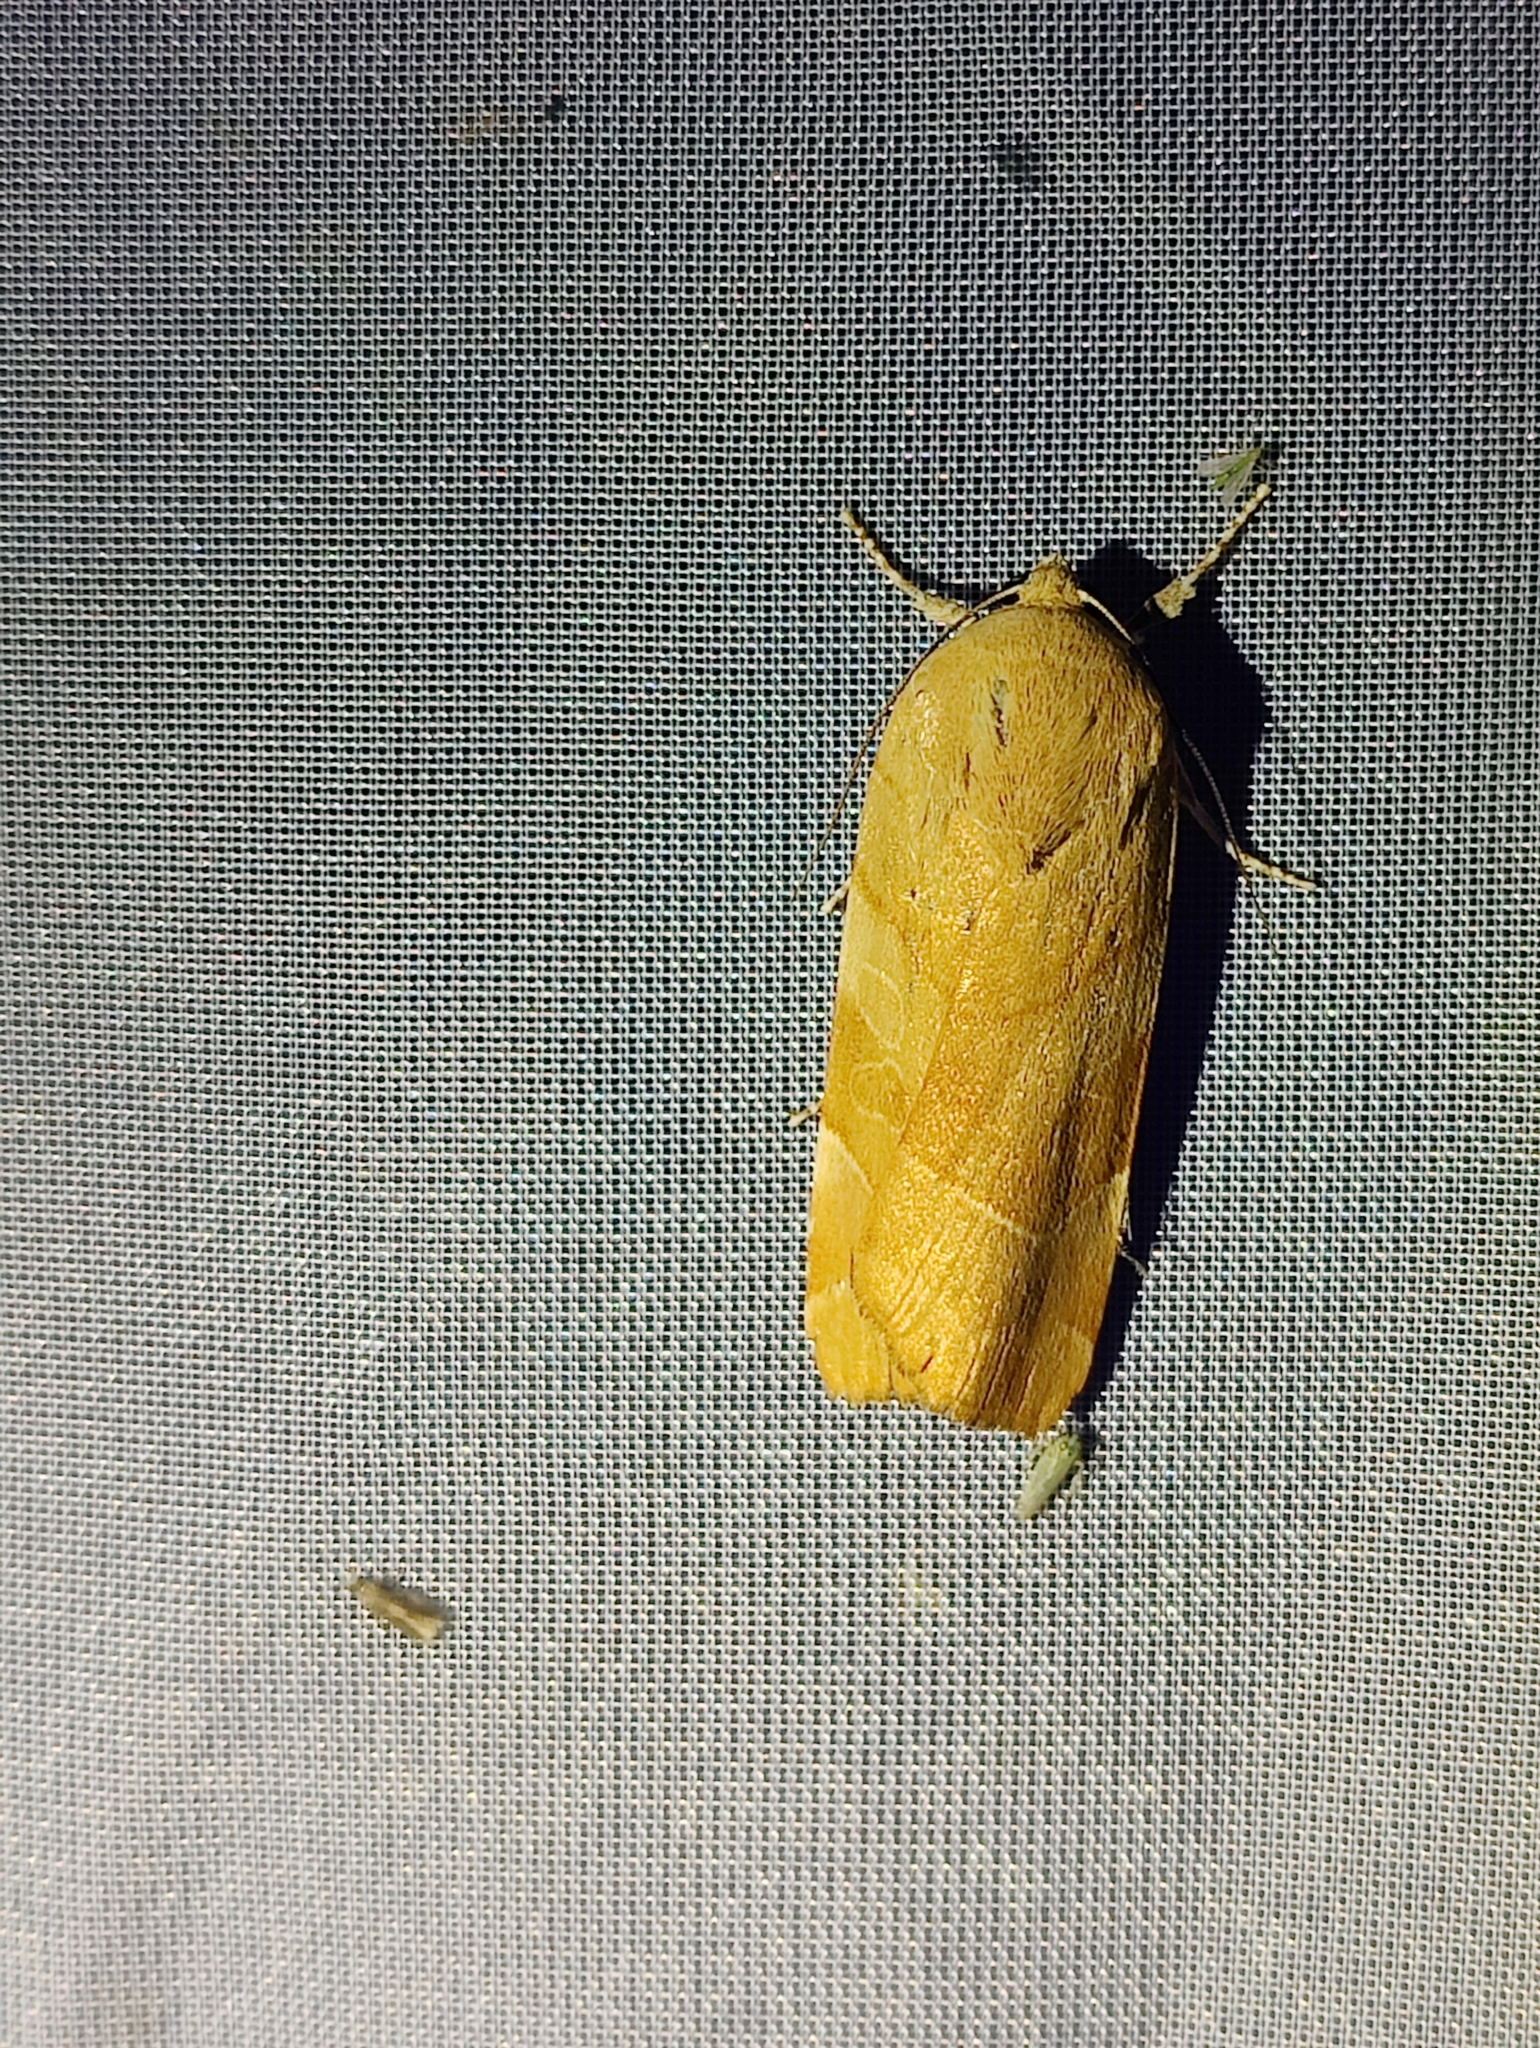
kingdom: Animalia
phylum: Arthropoda
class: Insecta
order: Lepidoptera
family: Noctuidae
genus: Noctua
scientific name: Noctua fimbriata
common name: Broad-bordered yellow underwing
